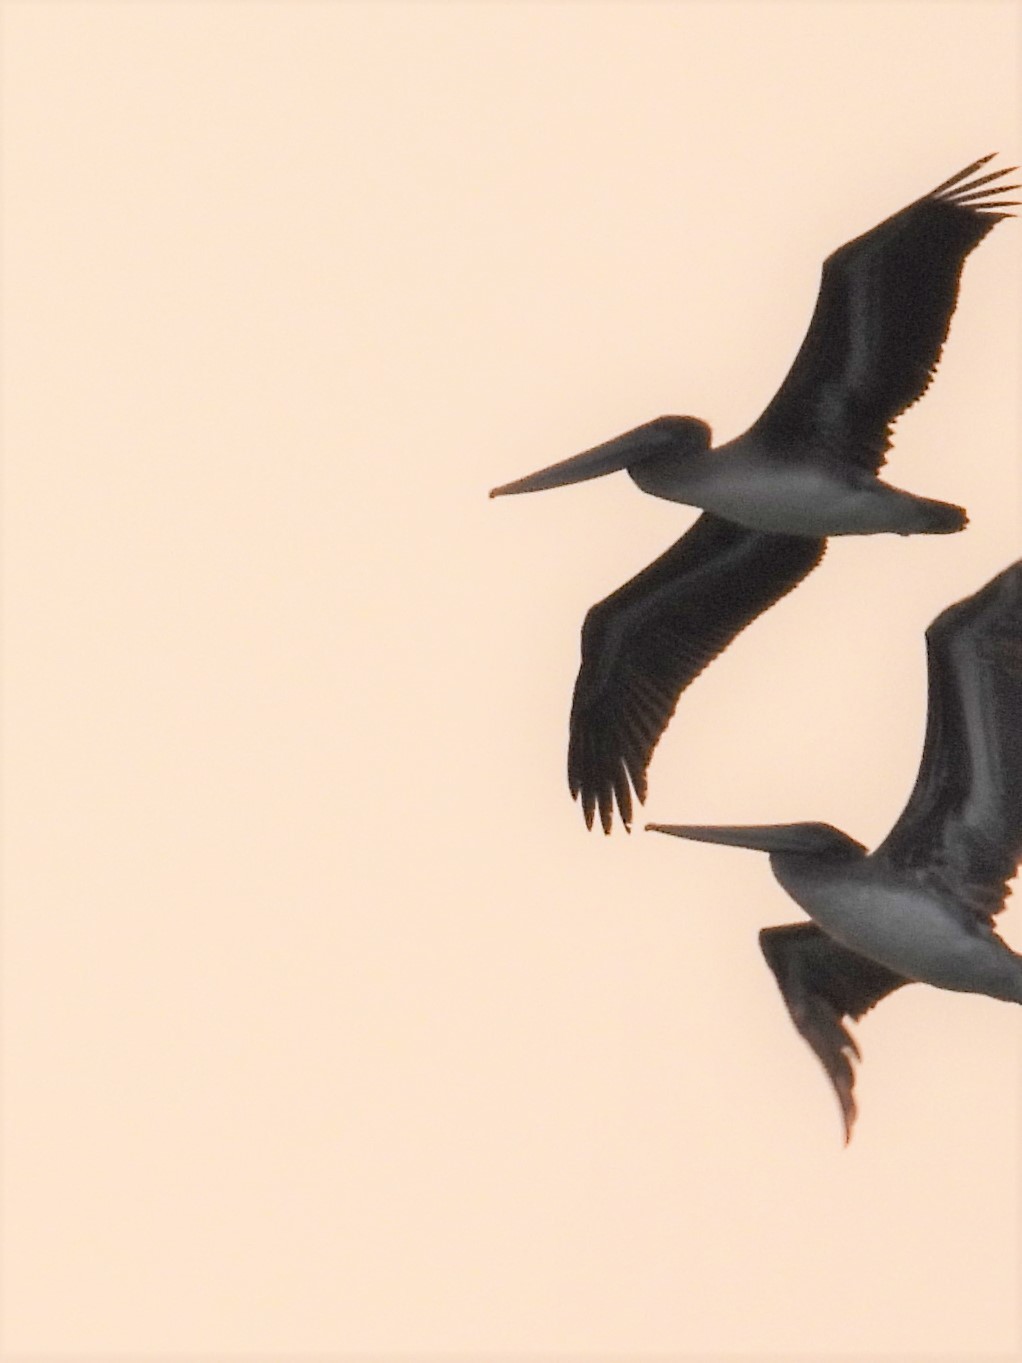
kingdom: Animalia
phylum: Chordata
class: Aves
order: Pelecaniformes
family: Pelecanidae
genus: Pelecanus
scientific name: Pelecanus occidentalis
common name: Brown pelican
